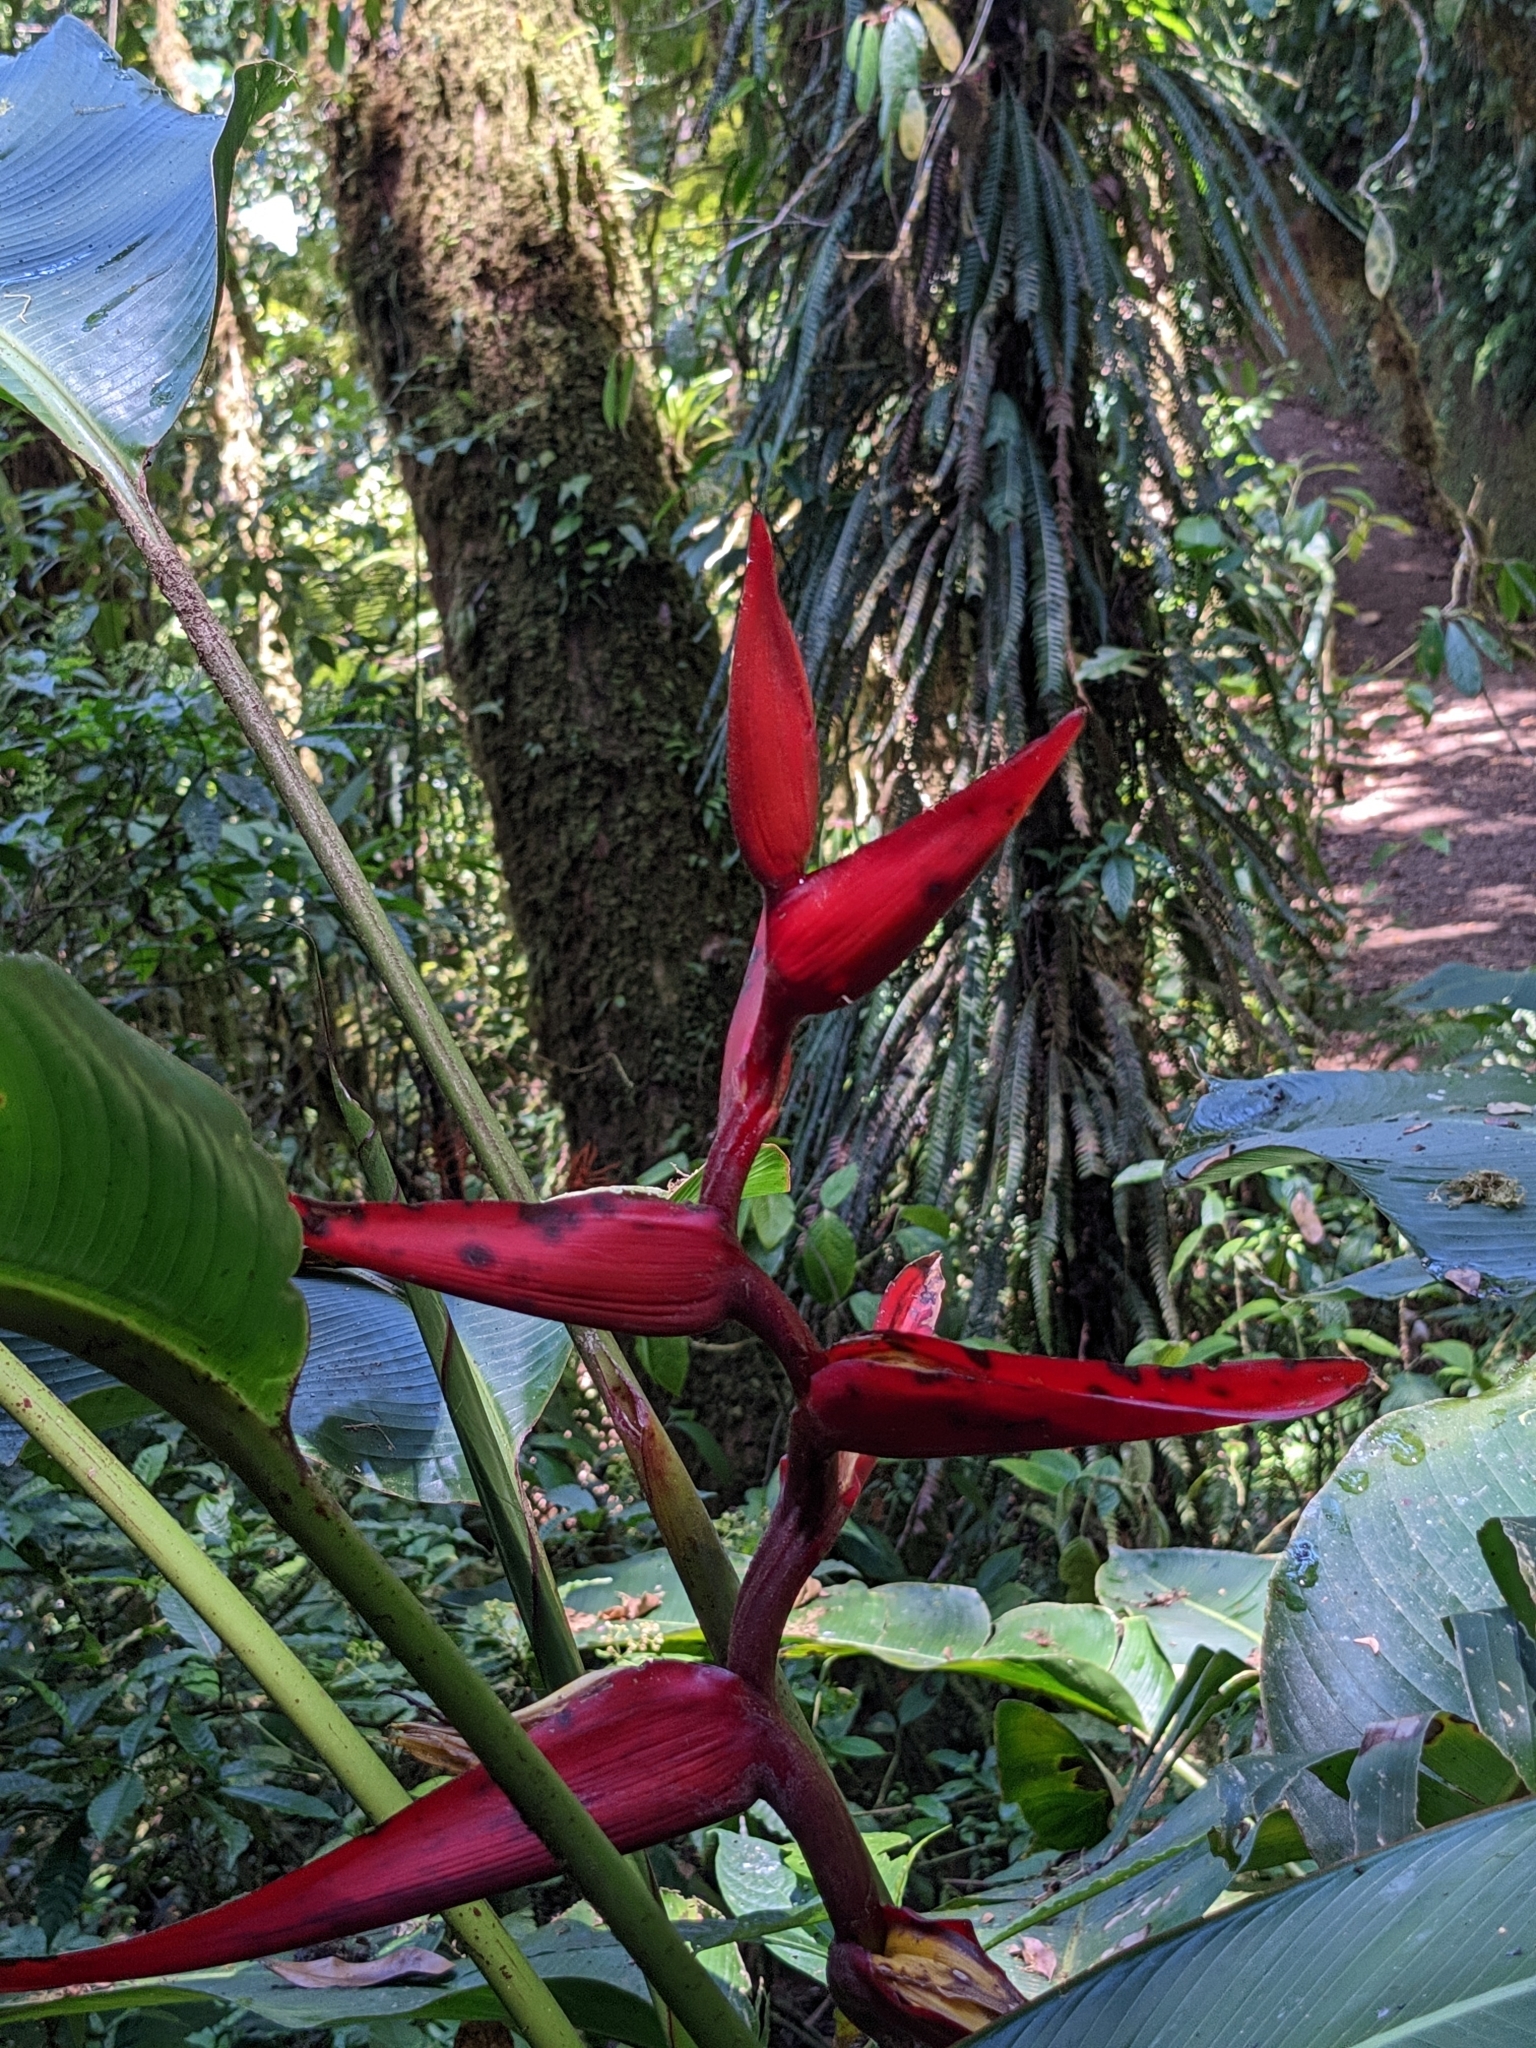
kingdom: Plantae
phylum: Tracheophyta
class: Liliopsida
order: Zingiberales
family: Heliconiaceae
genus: Heliconia
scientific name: Heliconia monteverdensis
